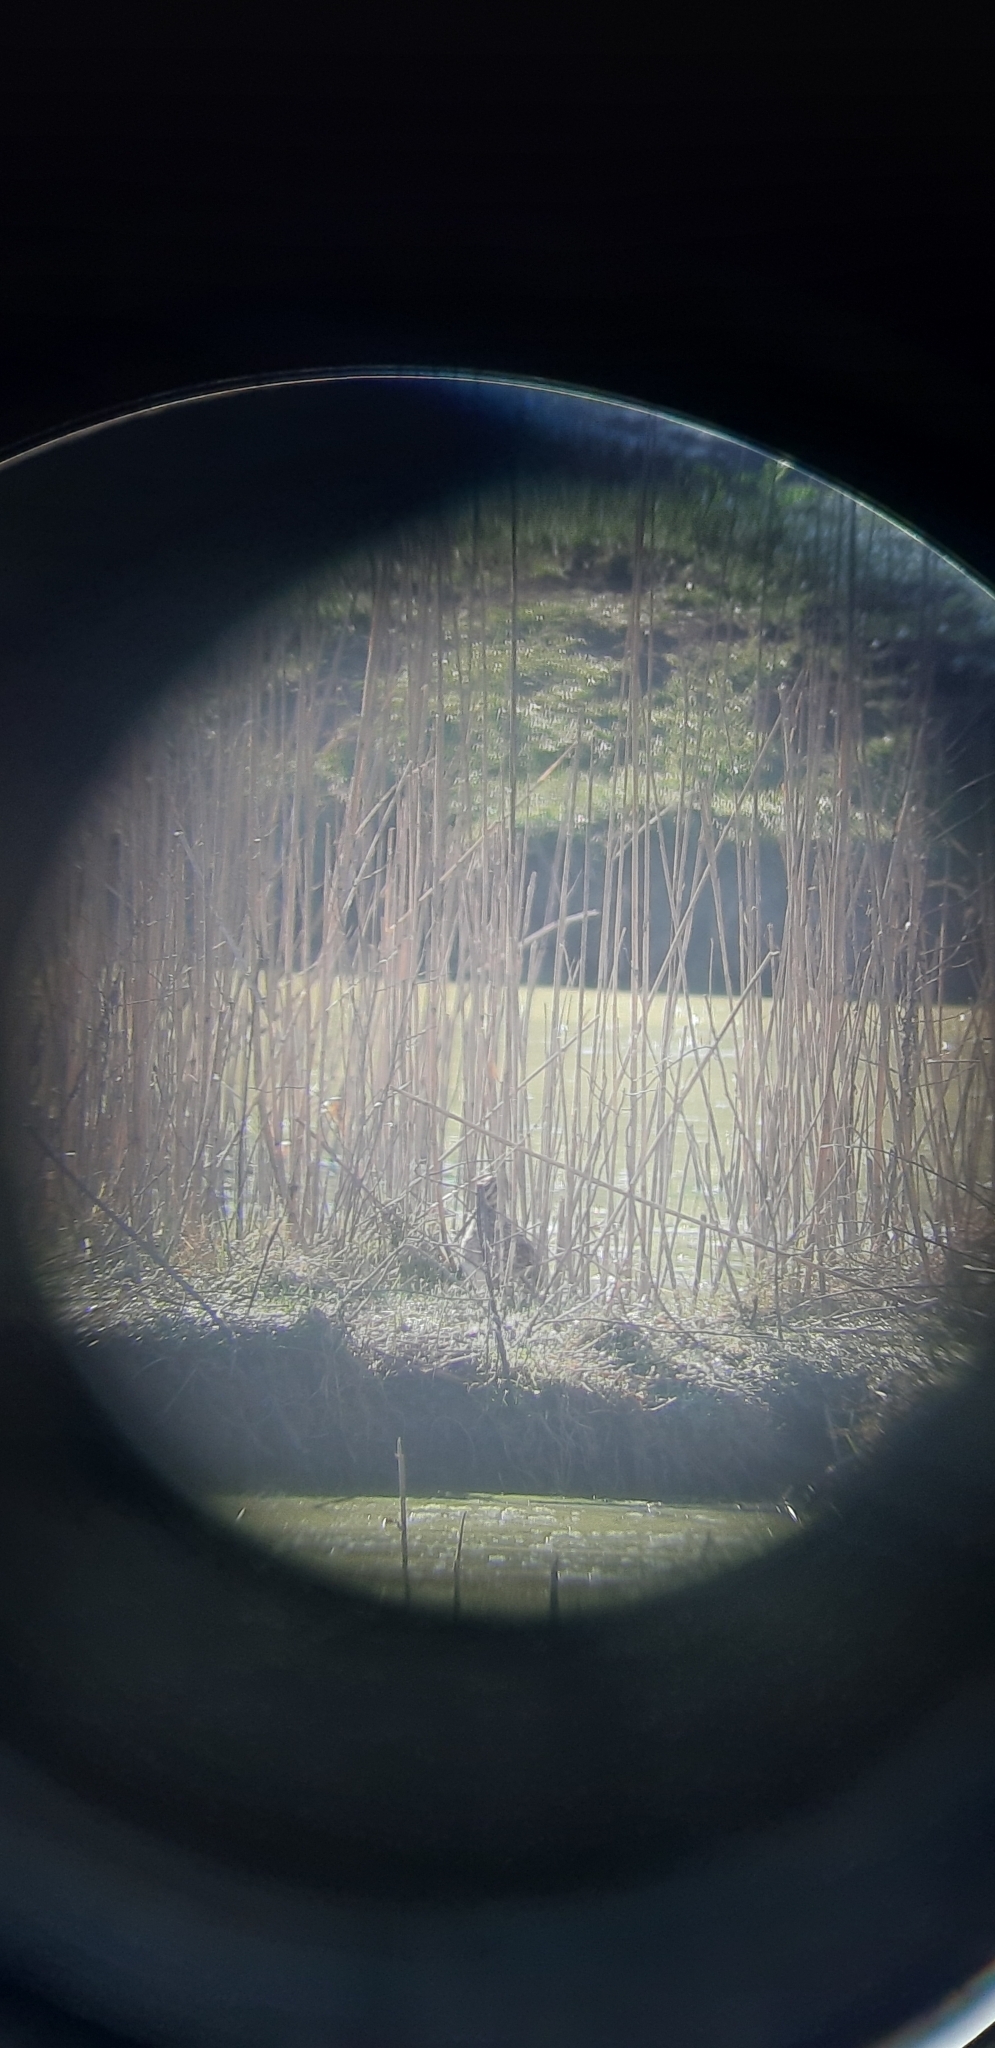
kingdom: Animalia
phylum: Chordata
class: Aves
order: Charadriiformes
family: Scolopacidae
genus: Gallinago
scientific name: Gallinago gallinago
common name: Common snipe
